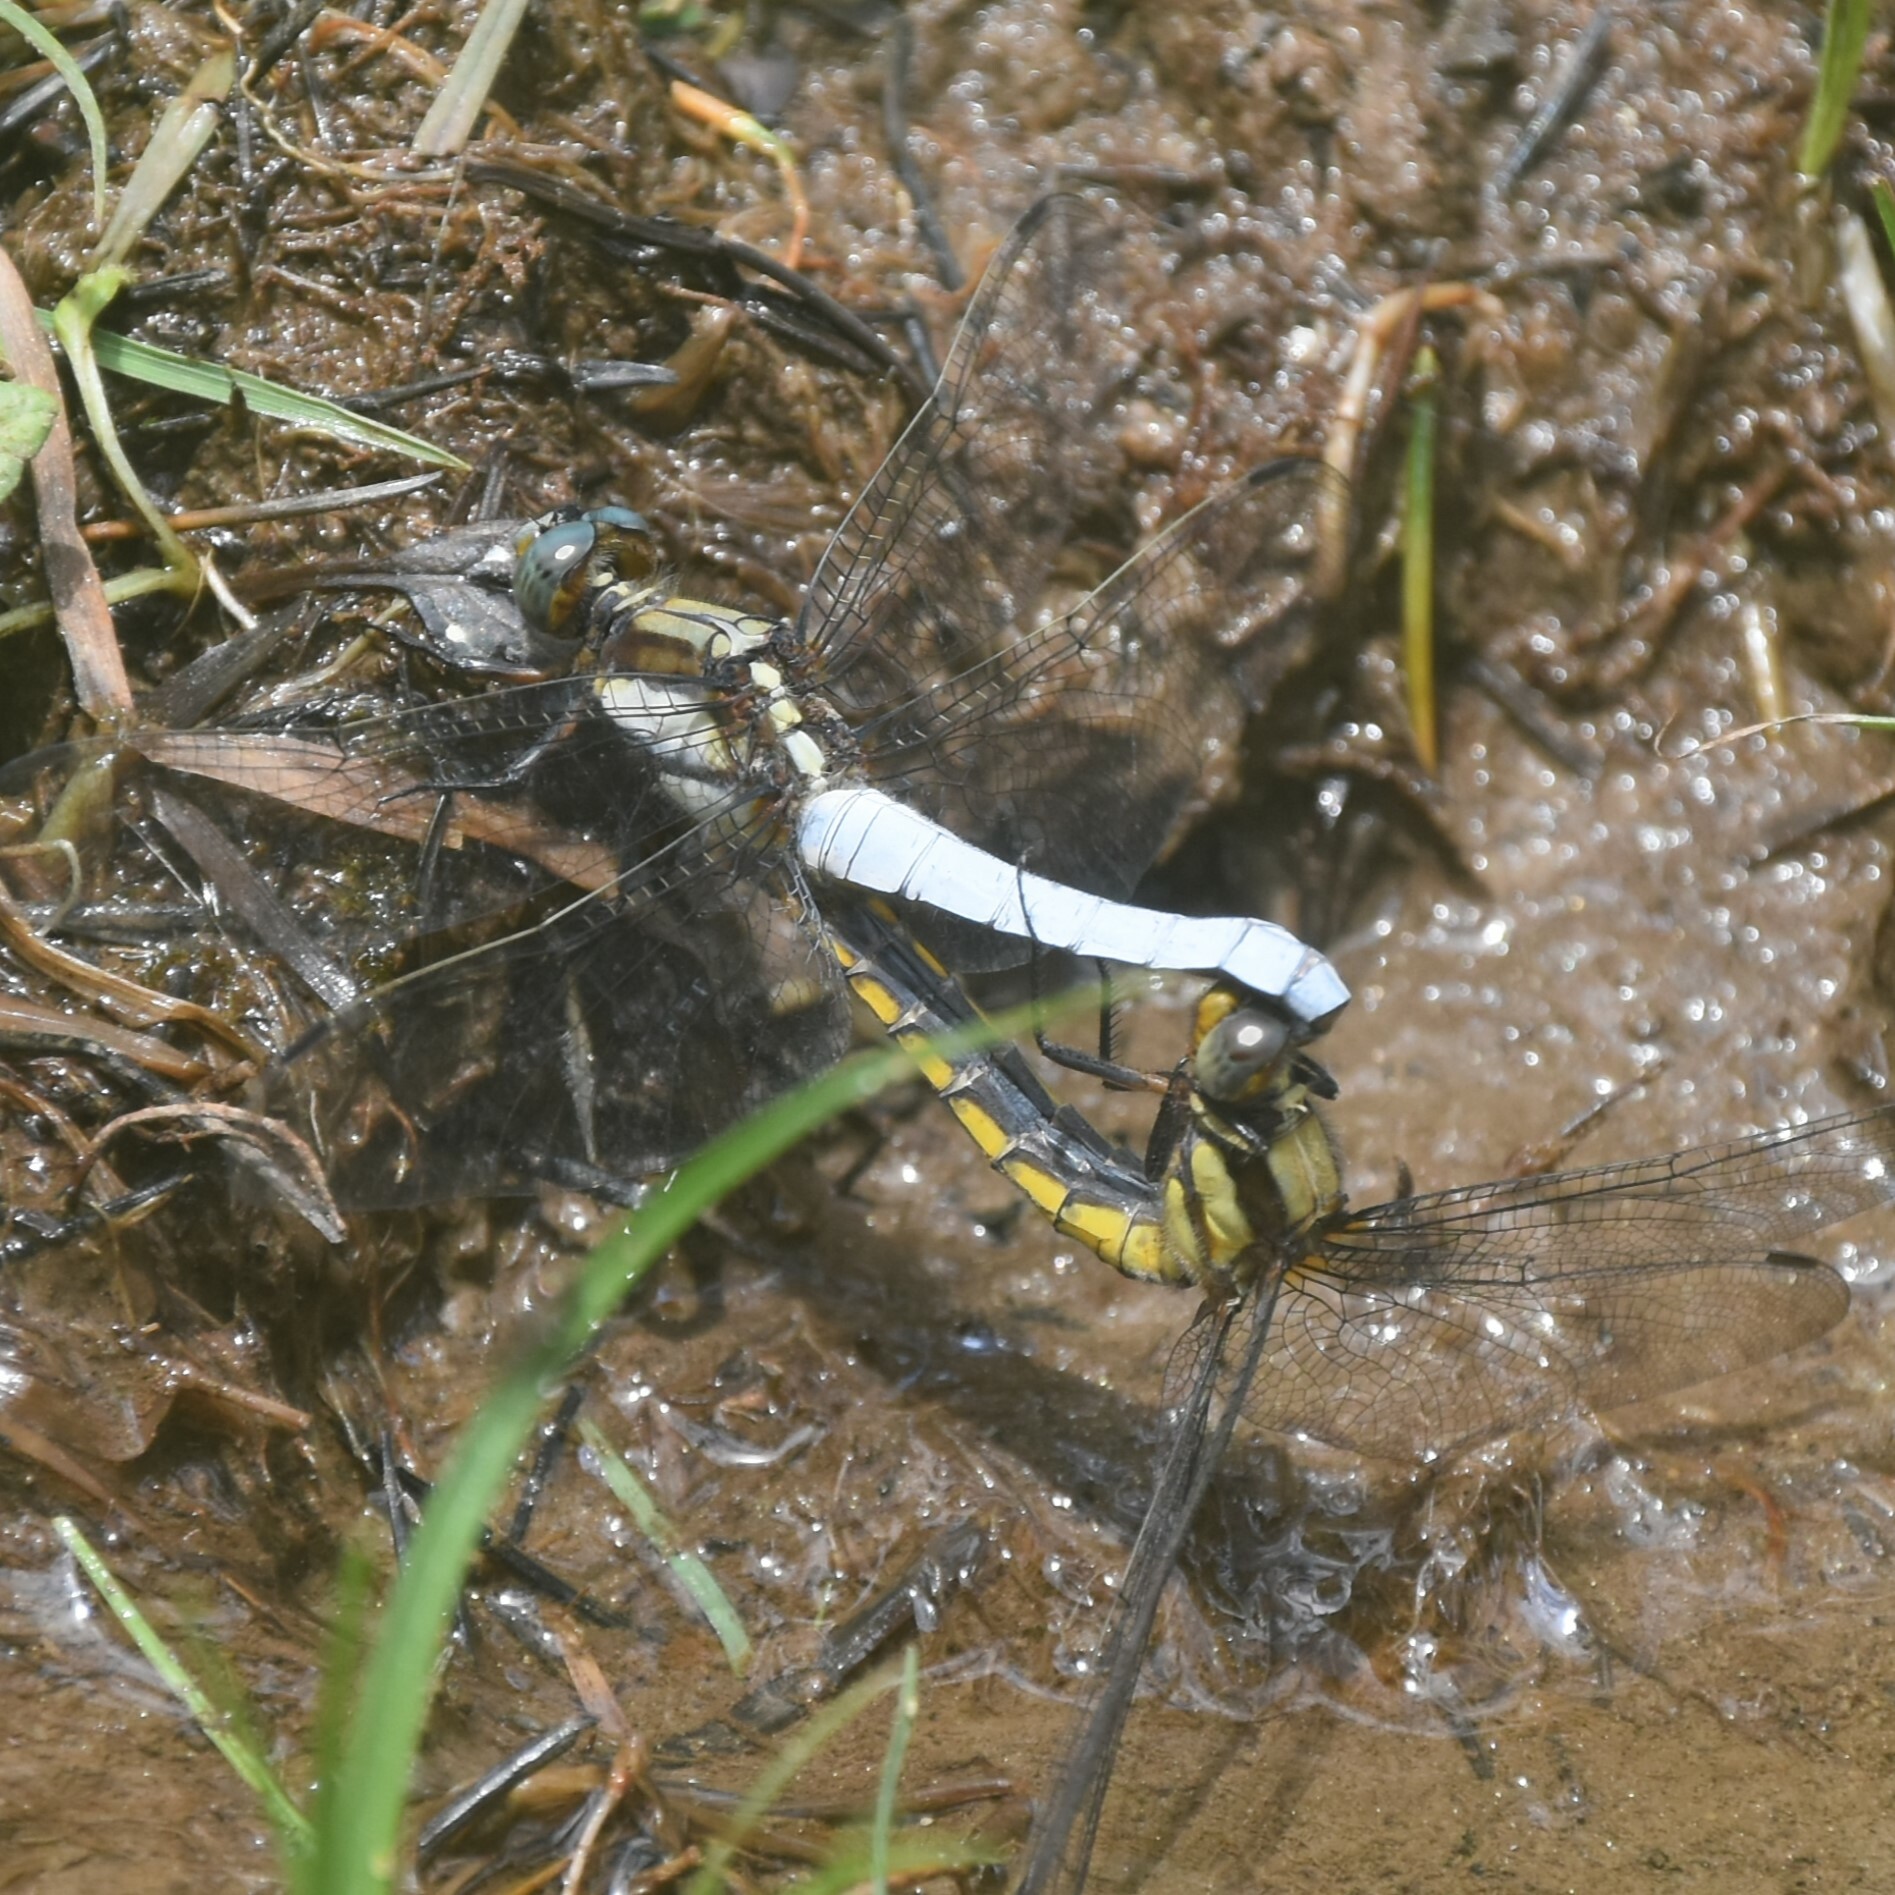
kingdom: Animalia
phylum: Arthropoda
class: Insecta
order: Odonata
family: Libellulidae
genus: Orthetrum
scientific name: Orthetrum internum
